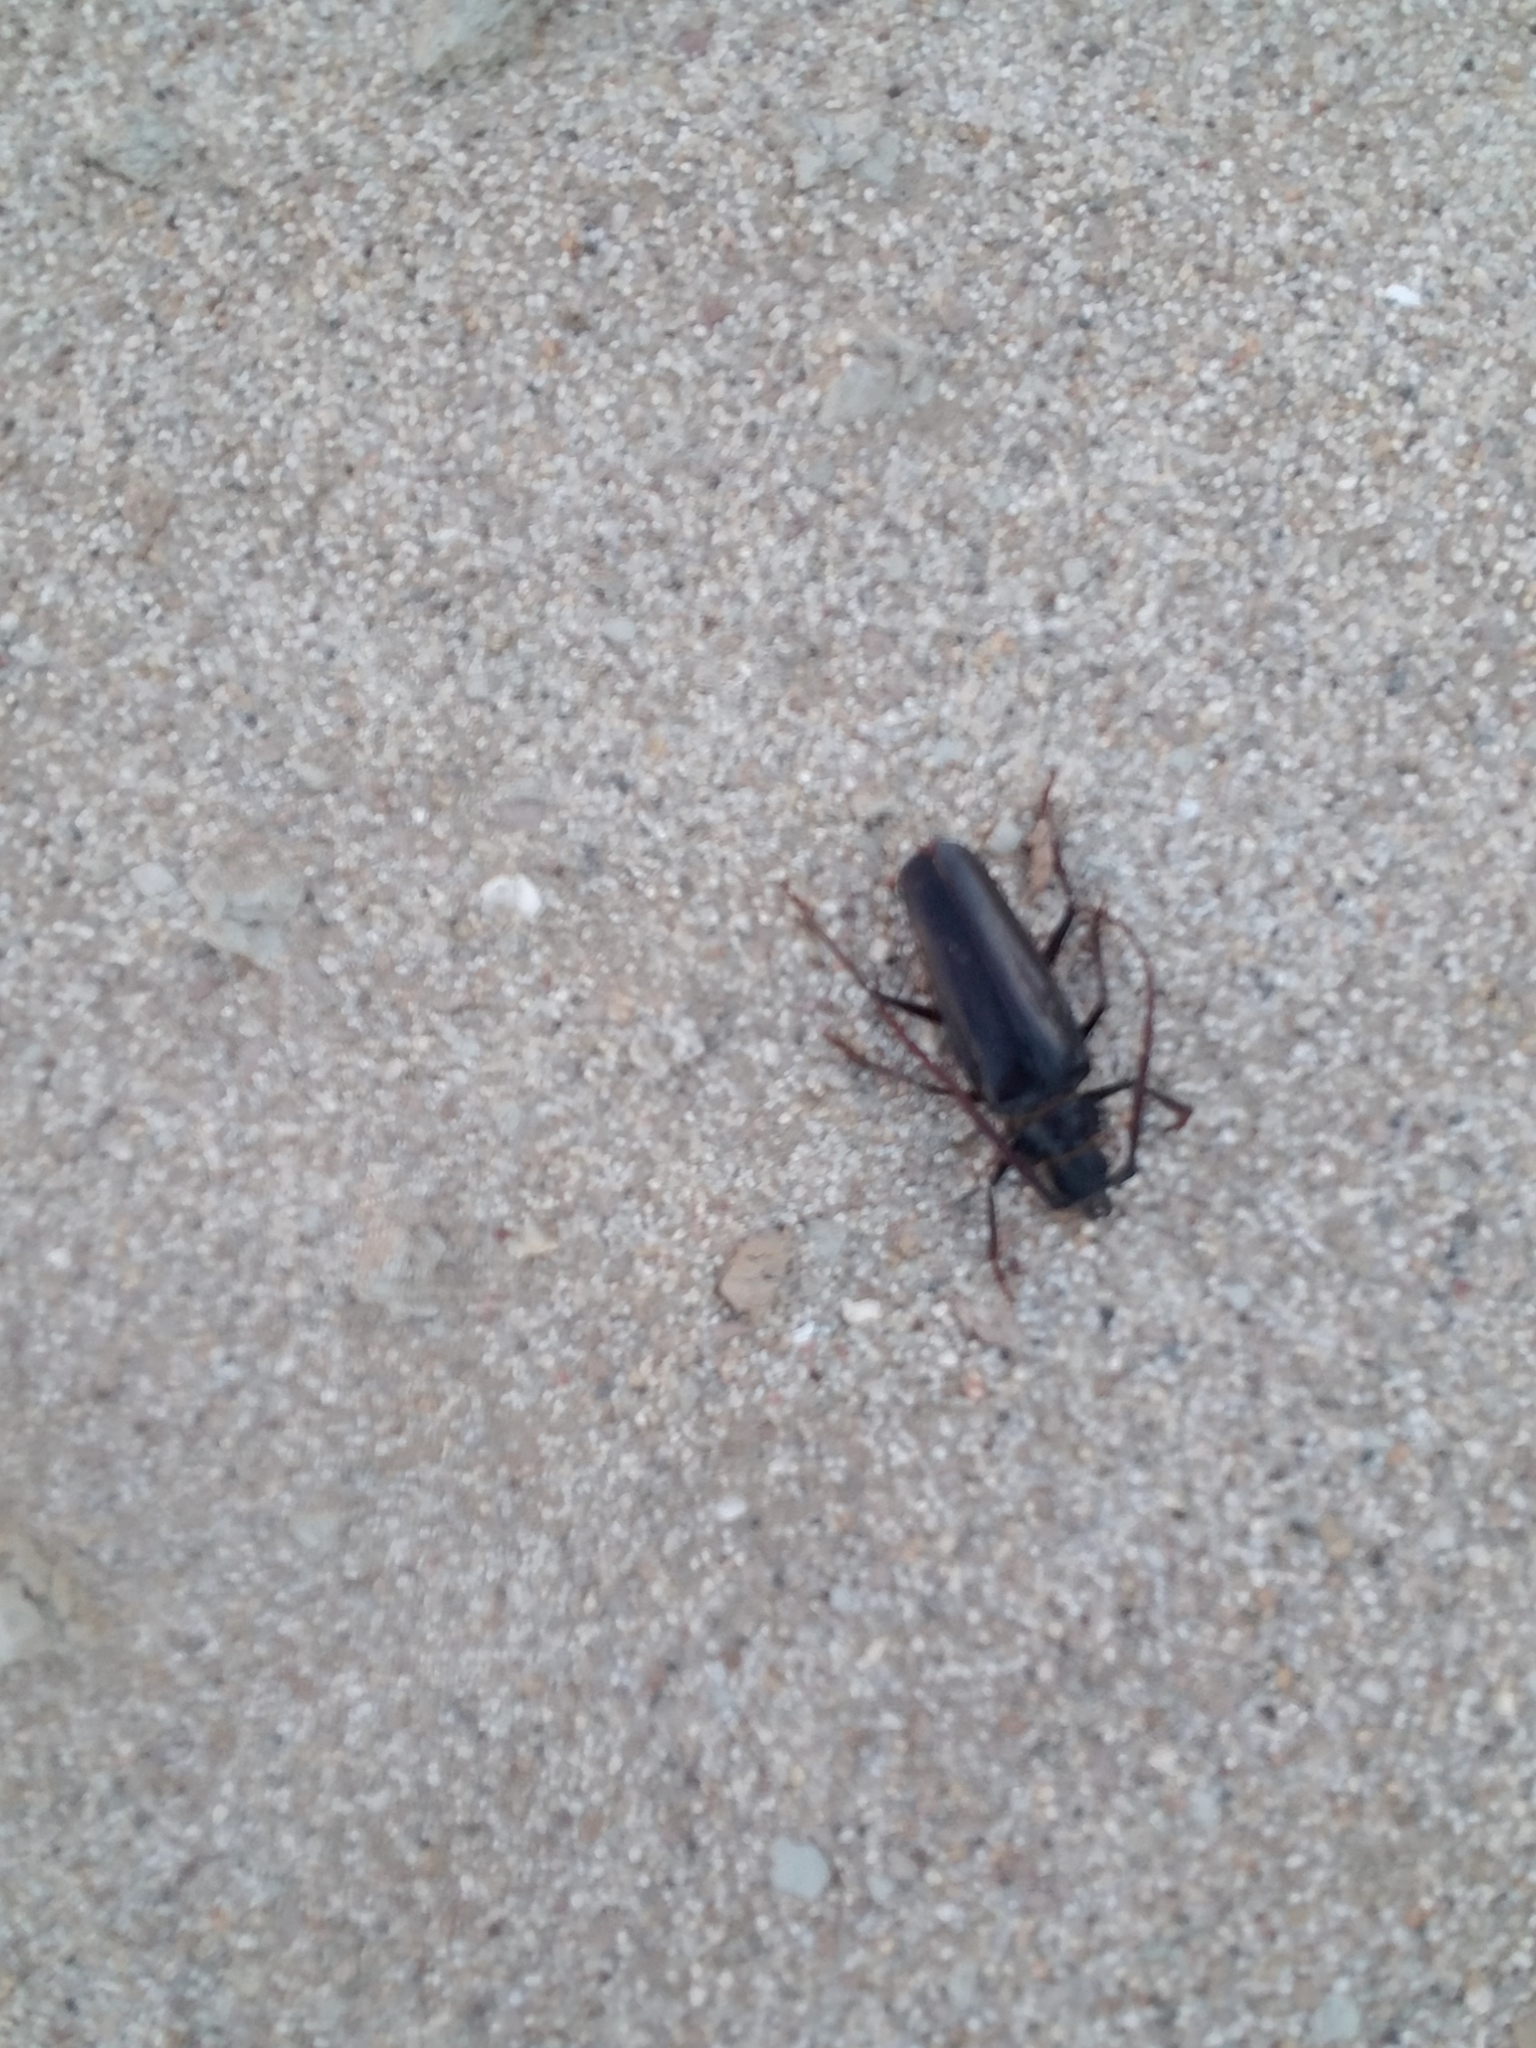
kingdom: Animalia
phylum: Arthropoda
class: Insecta
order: Coleoptera
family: Cerambycidae
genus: Derobrachus
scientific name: Derobrachus geminatus
